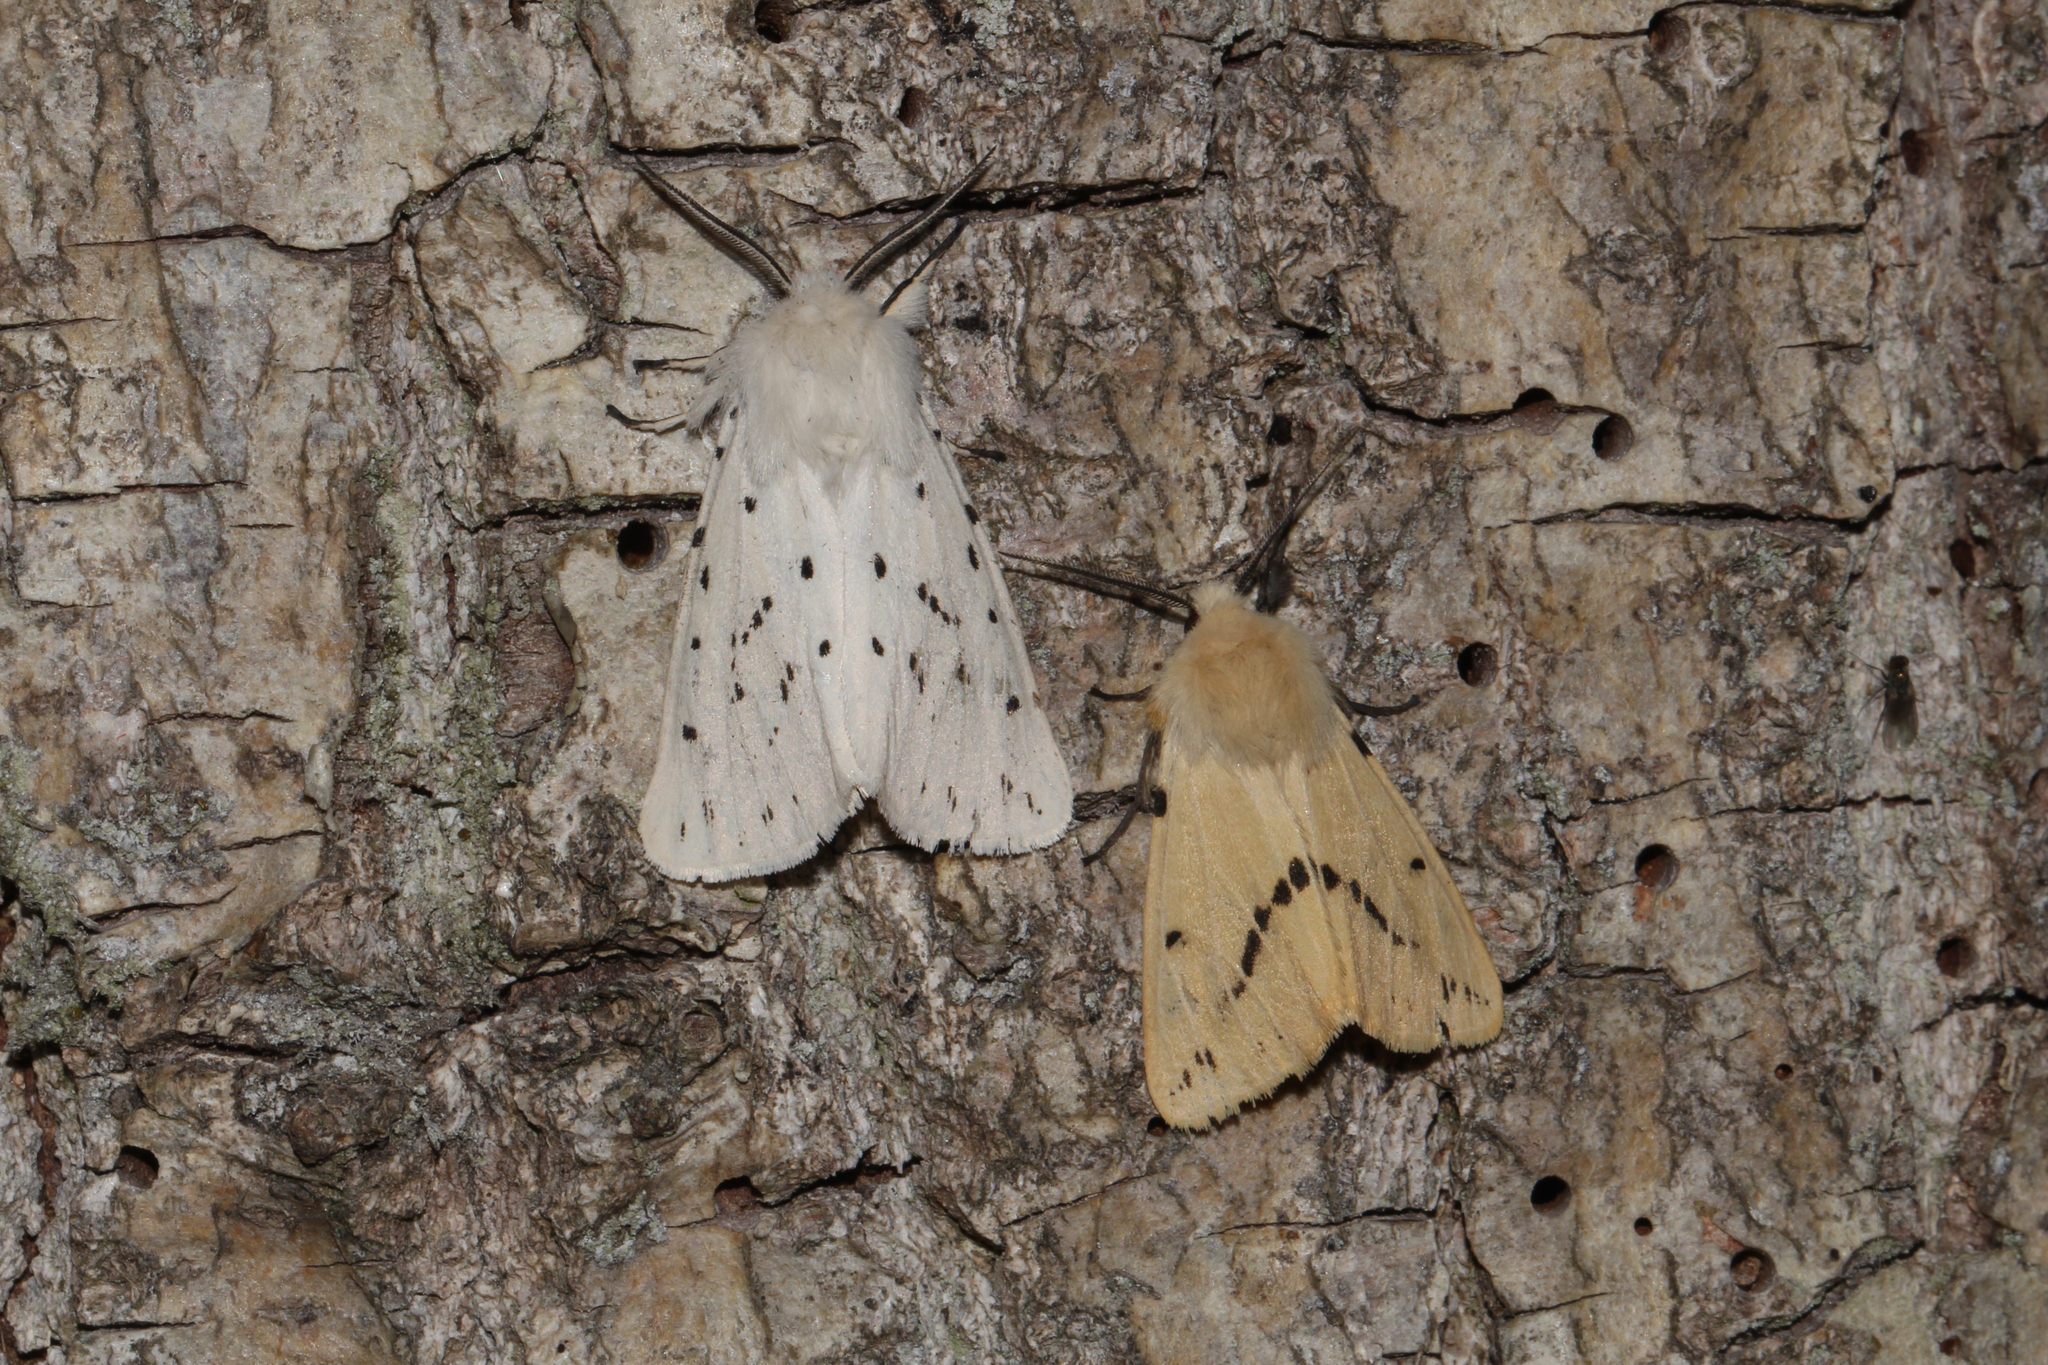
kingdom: Animalia
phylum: Arthropoda
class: Insecta
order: Lepidoptera
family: Erebidae
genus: Spilarctia
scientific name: Spilarctia lutea
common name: Buff ermine
